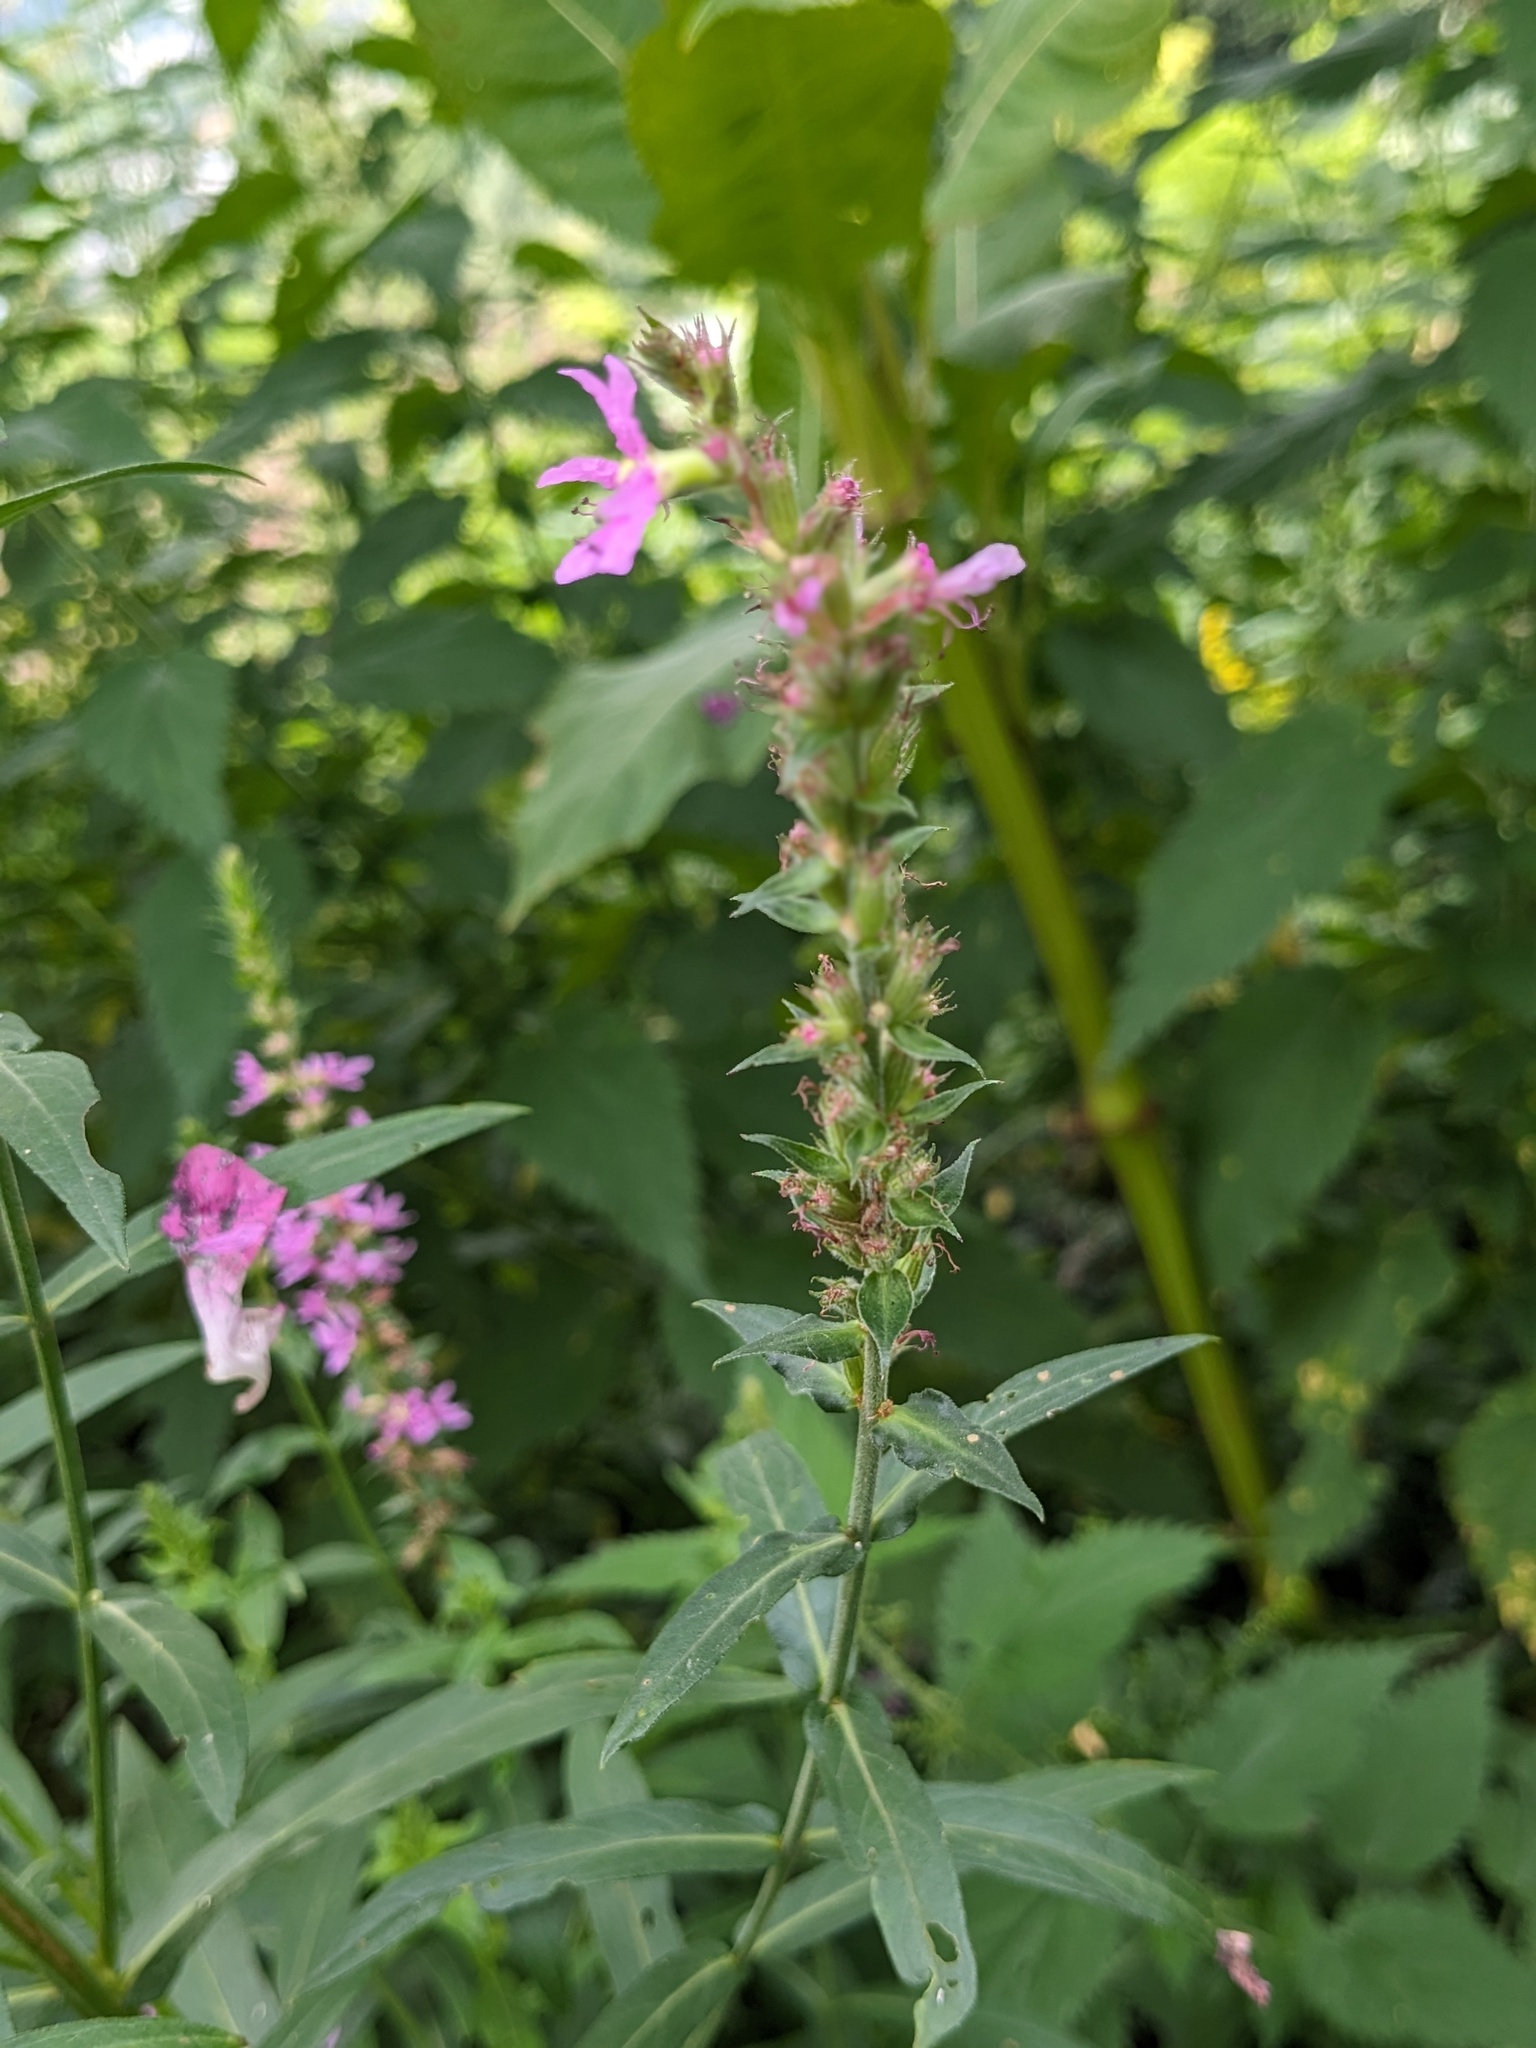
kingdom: Plantae
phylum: Tracheophyta
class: Magnoliopsida
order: Myrtales
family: Lythraceae
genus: Lythrum
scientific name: Lythrum salicaria
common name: Purple loosestrife
